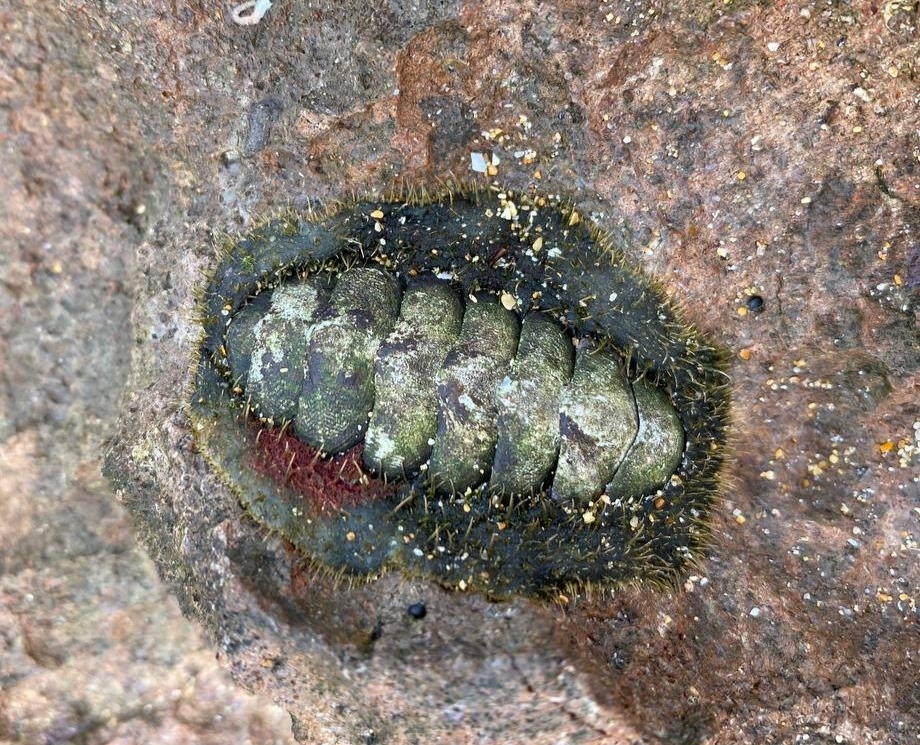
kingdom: Animalia
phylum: Mollusca
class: Polyplacophora
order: Chitonida
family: Mopaliidae
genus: Plaxiphora
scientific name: Plaxiphora albida
